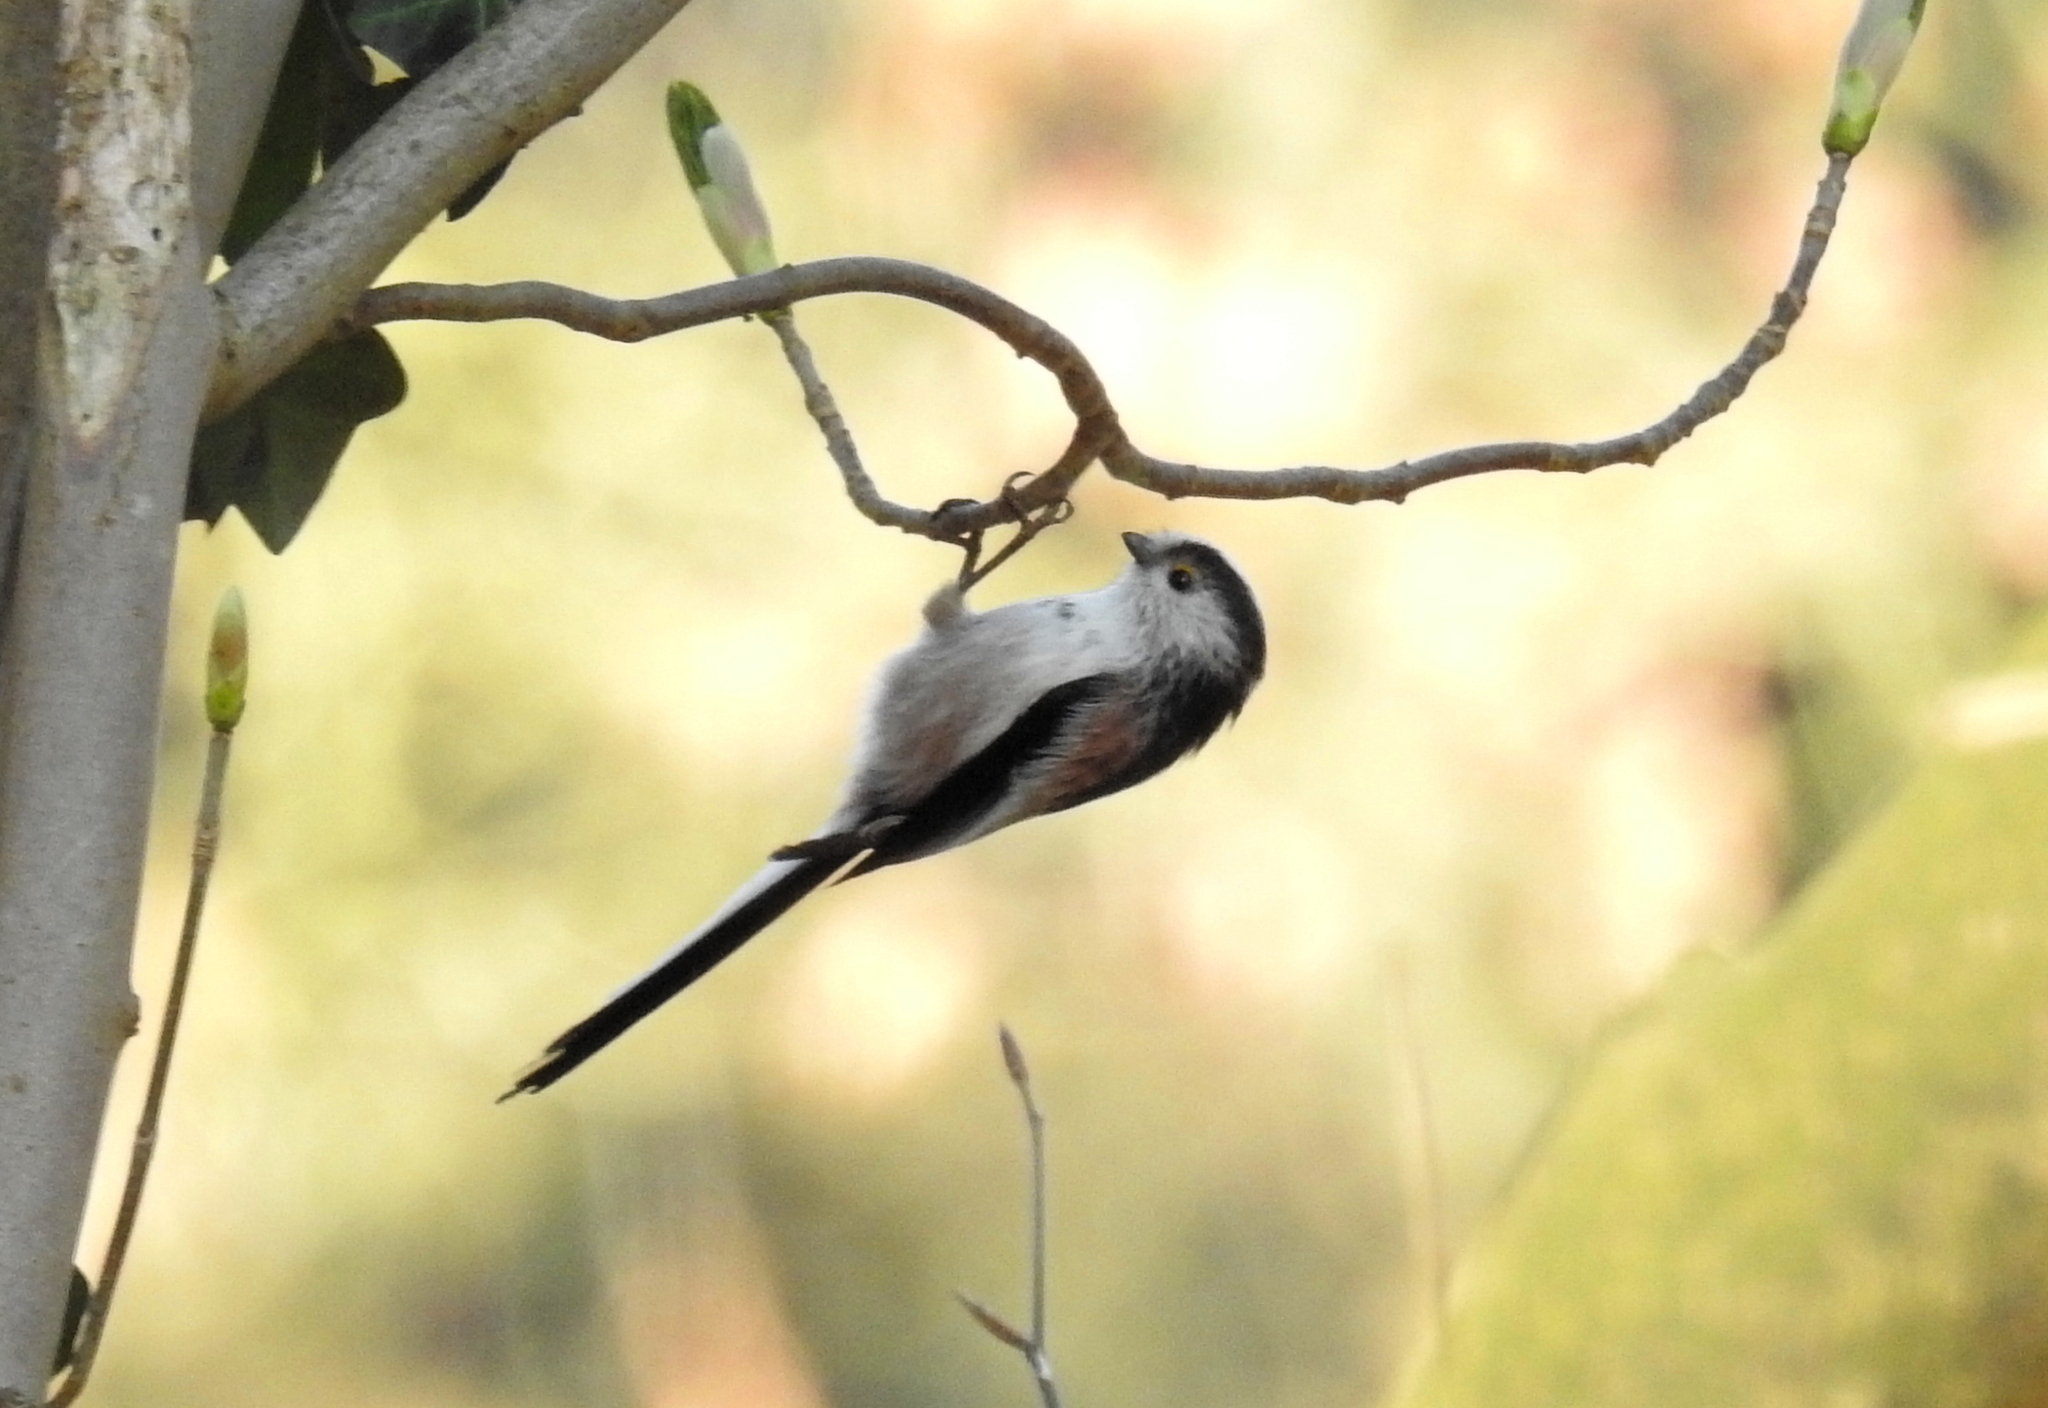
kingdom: Animalia
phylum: Chordata
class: Aves
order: Passeriformes
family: Aegithalidae
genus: Aegithalos
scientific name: Aegithalos caudatus
